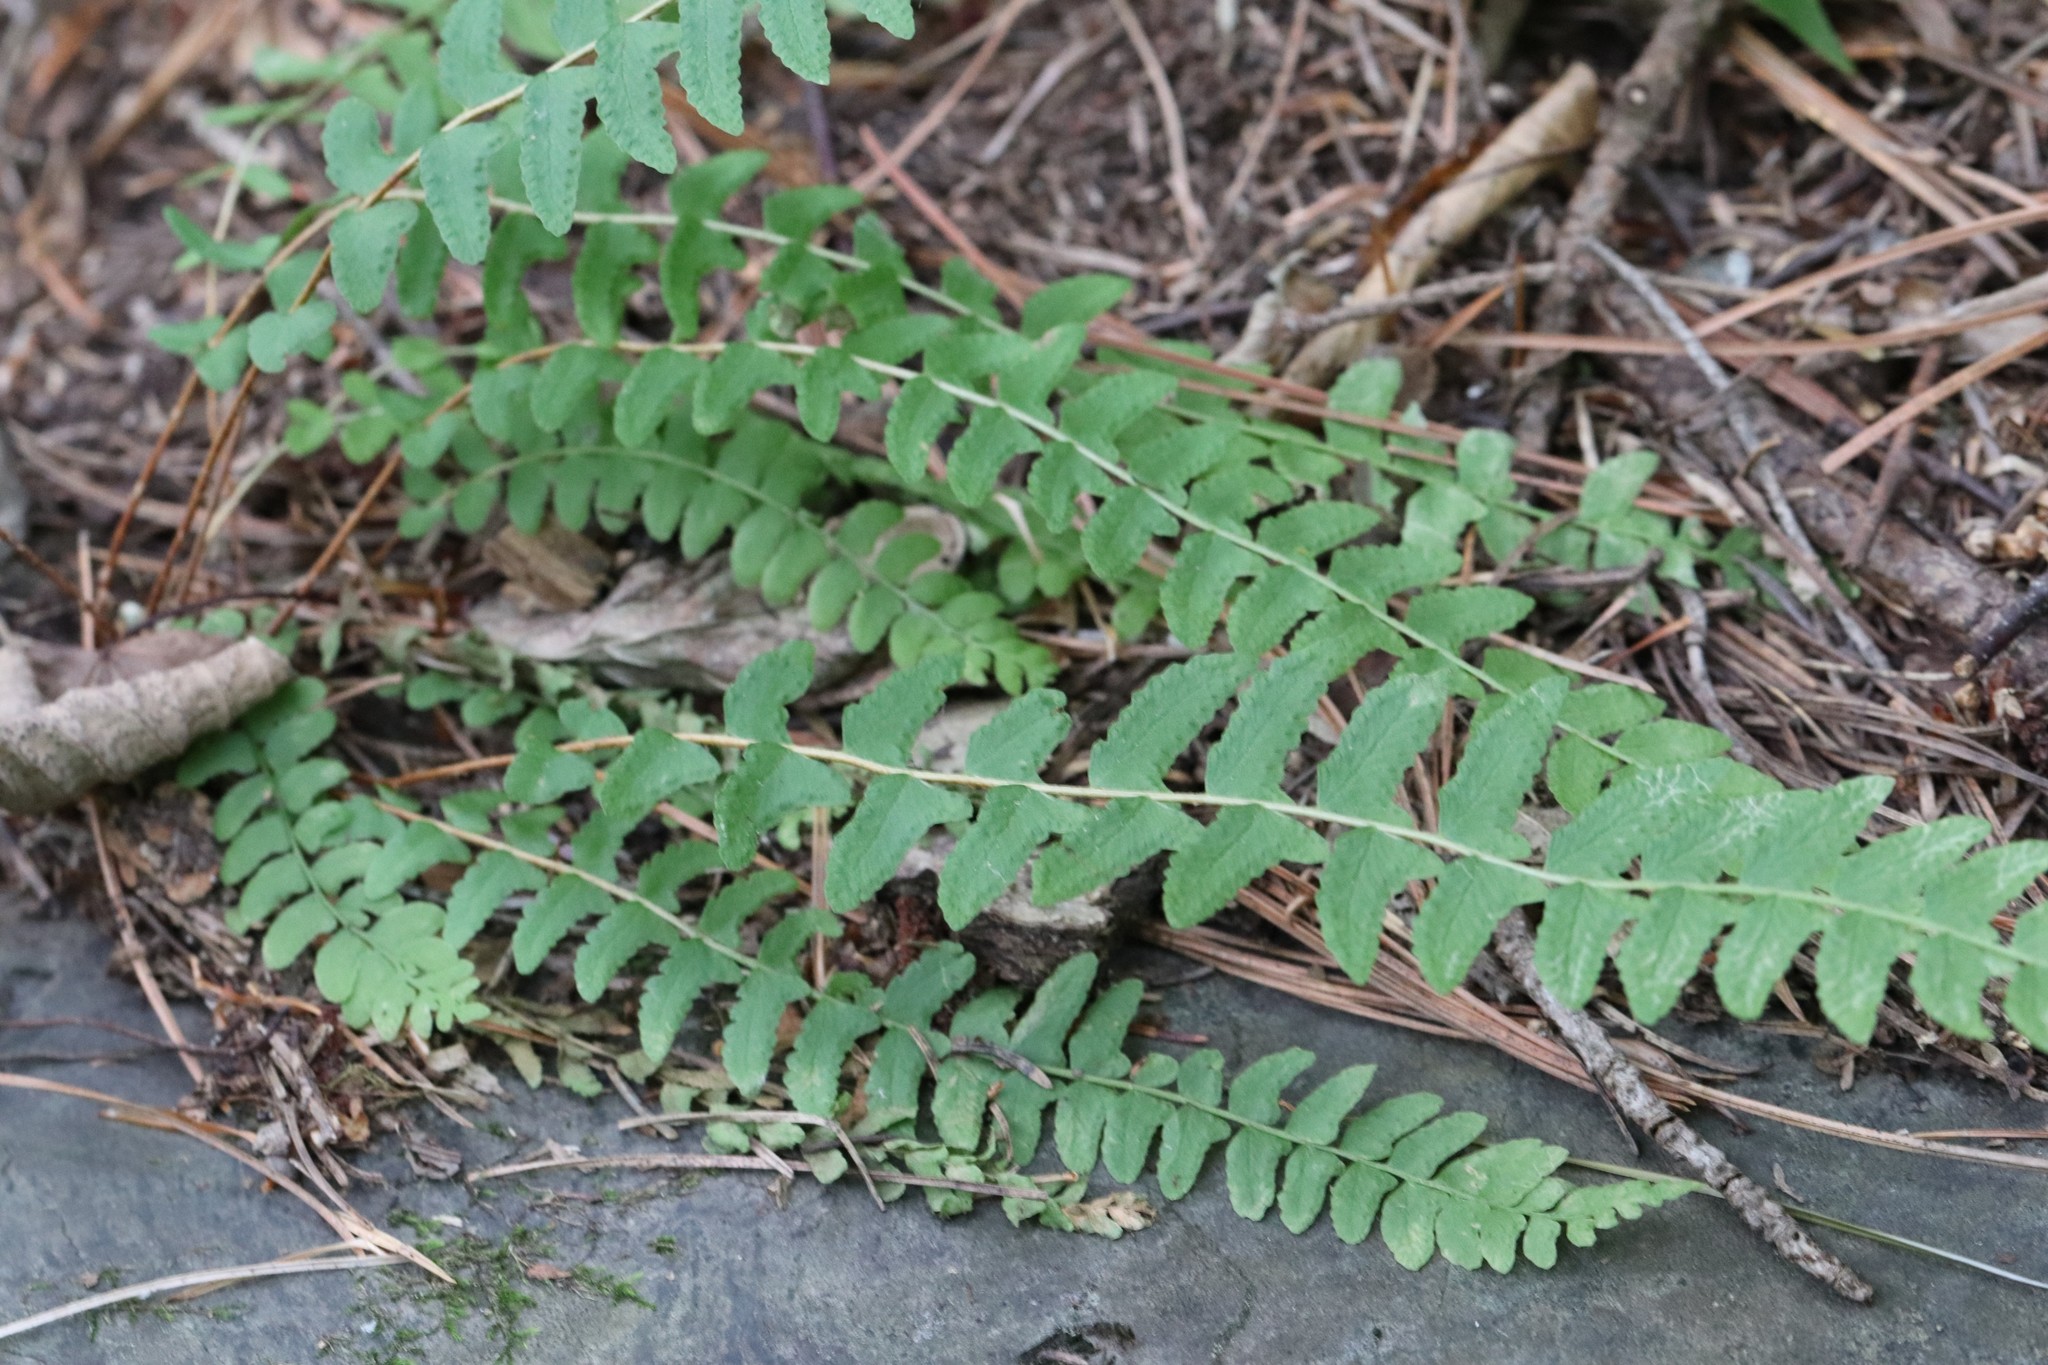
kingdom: Plantae
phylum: Tracheophyta
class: Polypodiopsida
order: Polypodiales
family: Woodsiaceae
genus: Woodsia
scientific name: Woodsia polystichoides
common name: Holly fern woodsia
